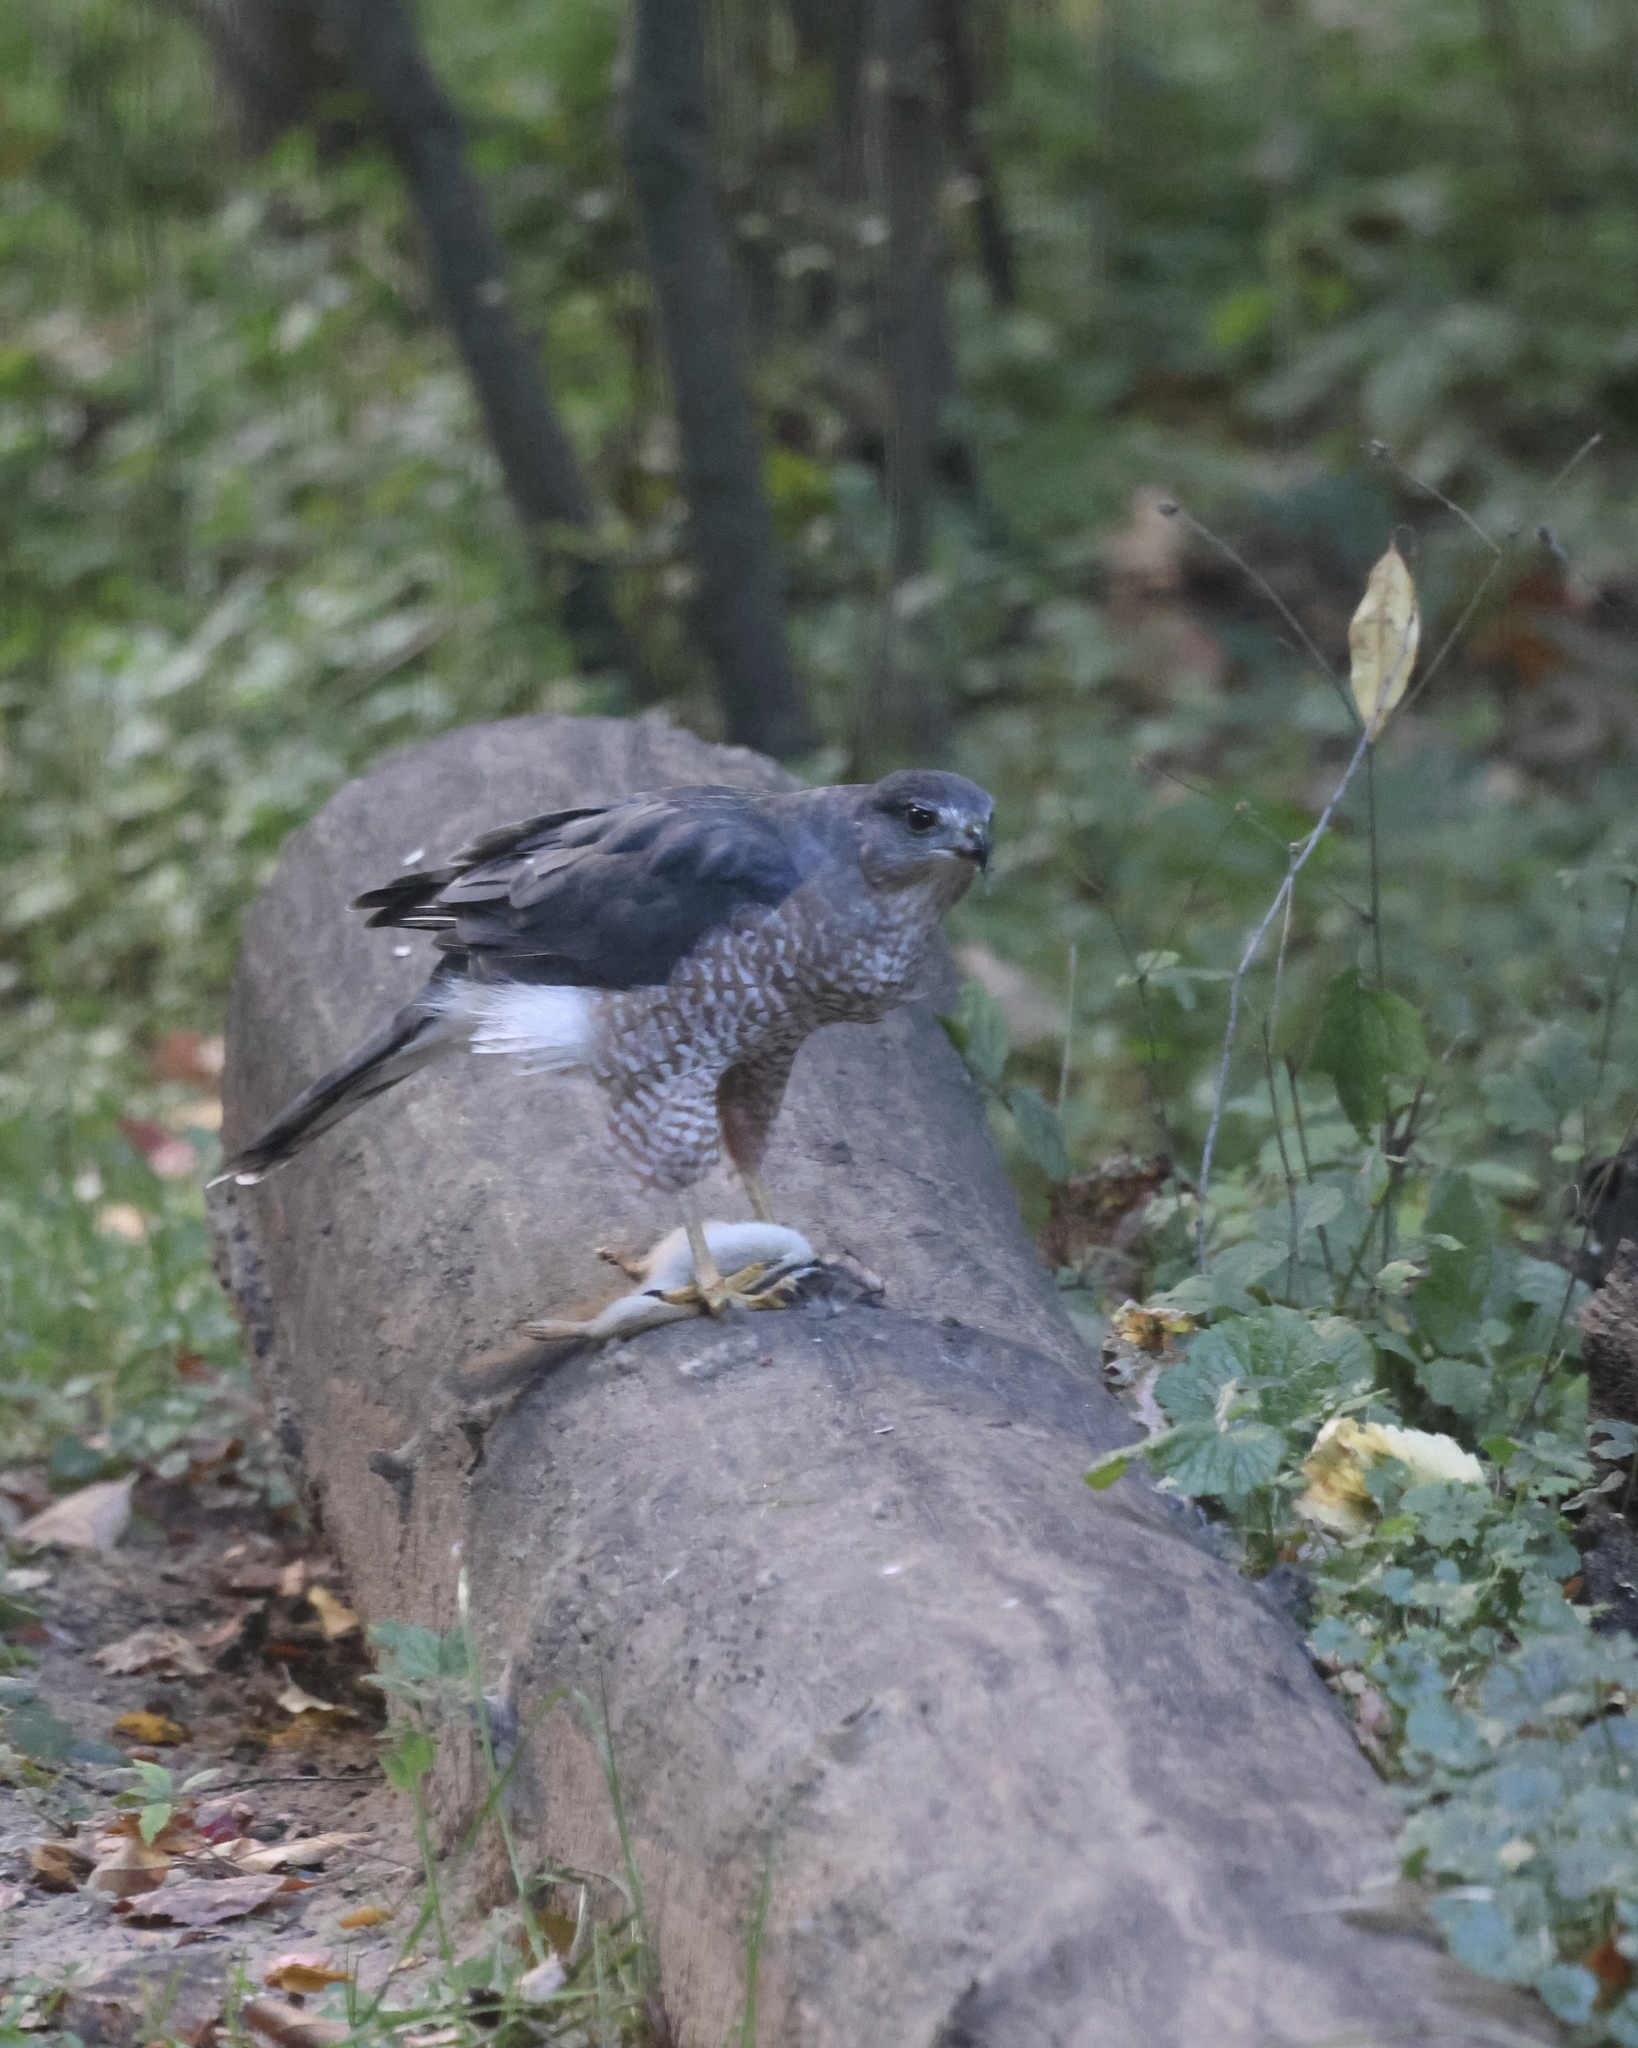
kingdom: Animalia
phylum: Chordata
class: Aves
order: Accipitriformes
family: Accipitridae
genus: Accipiter
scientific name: Accipiter cooperii
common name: Cooper's hawk
